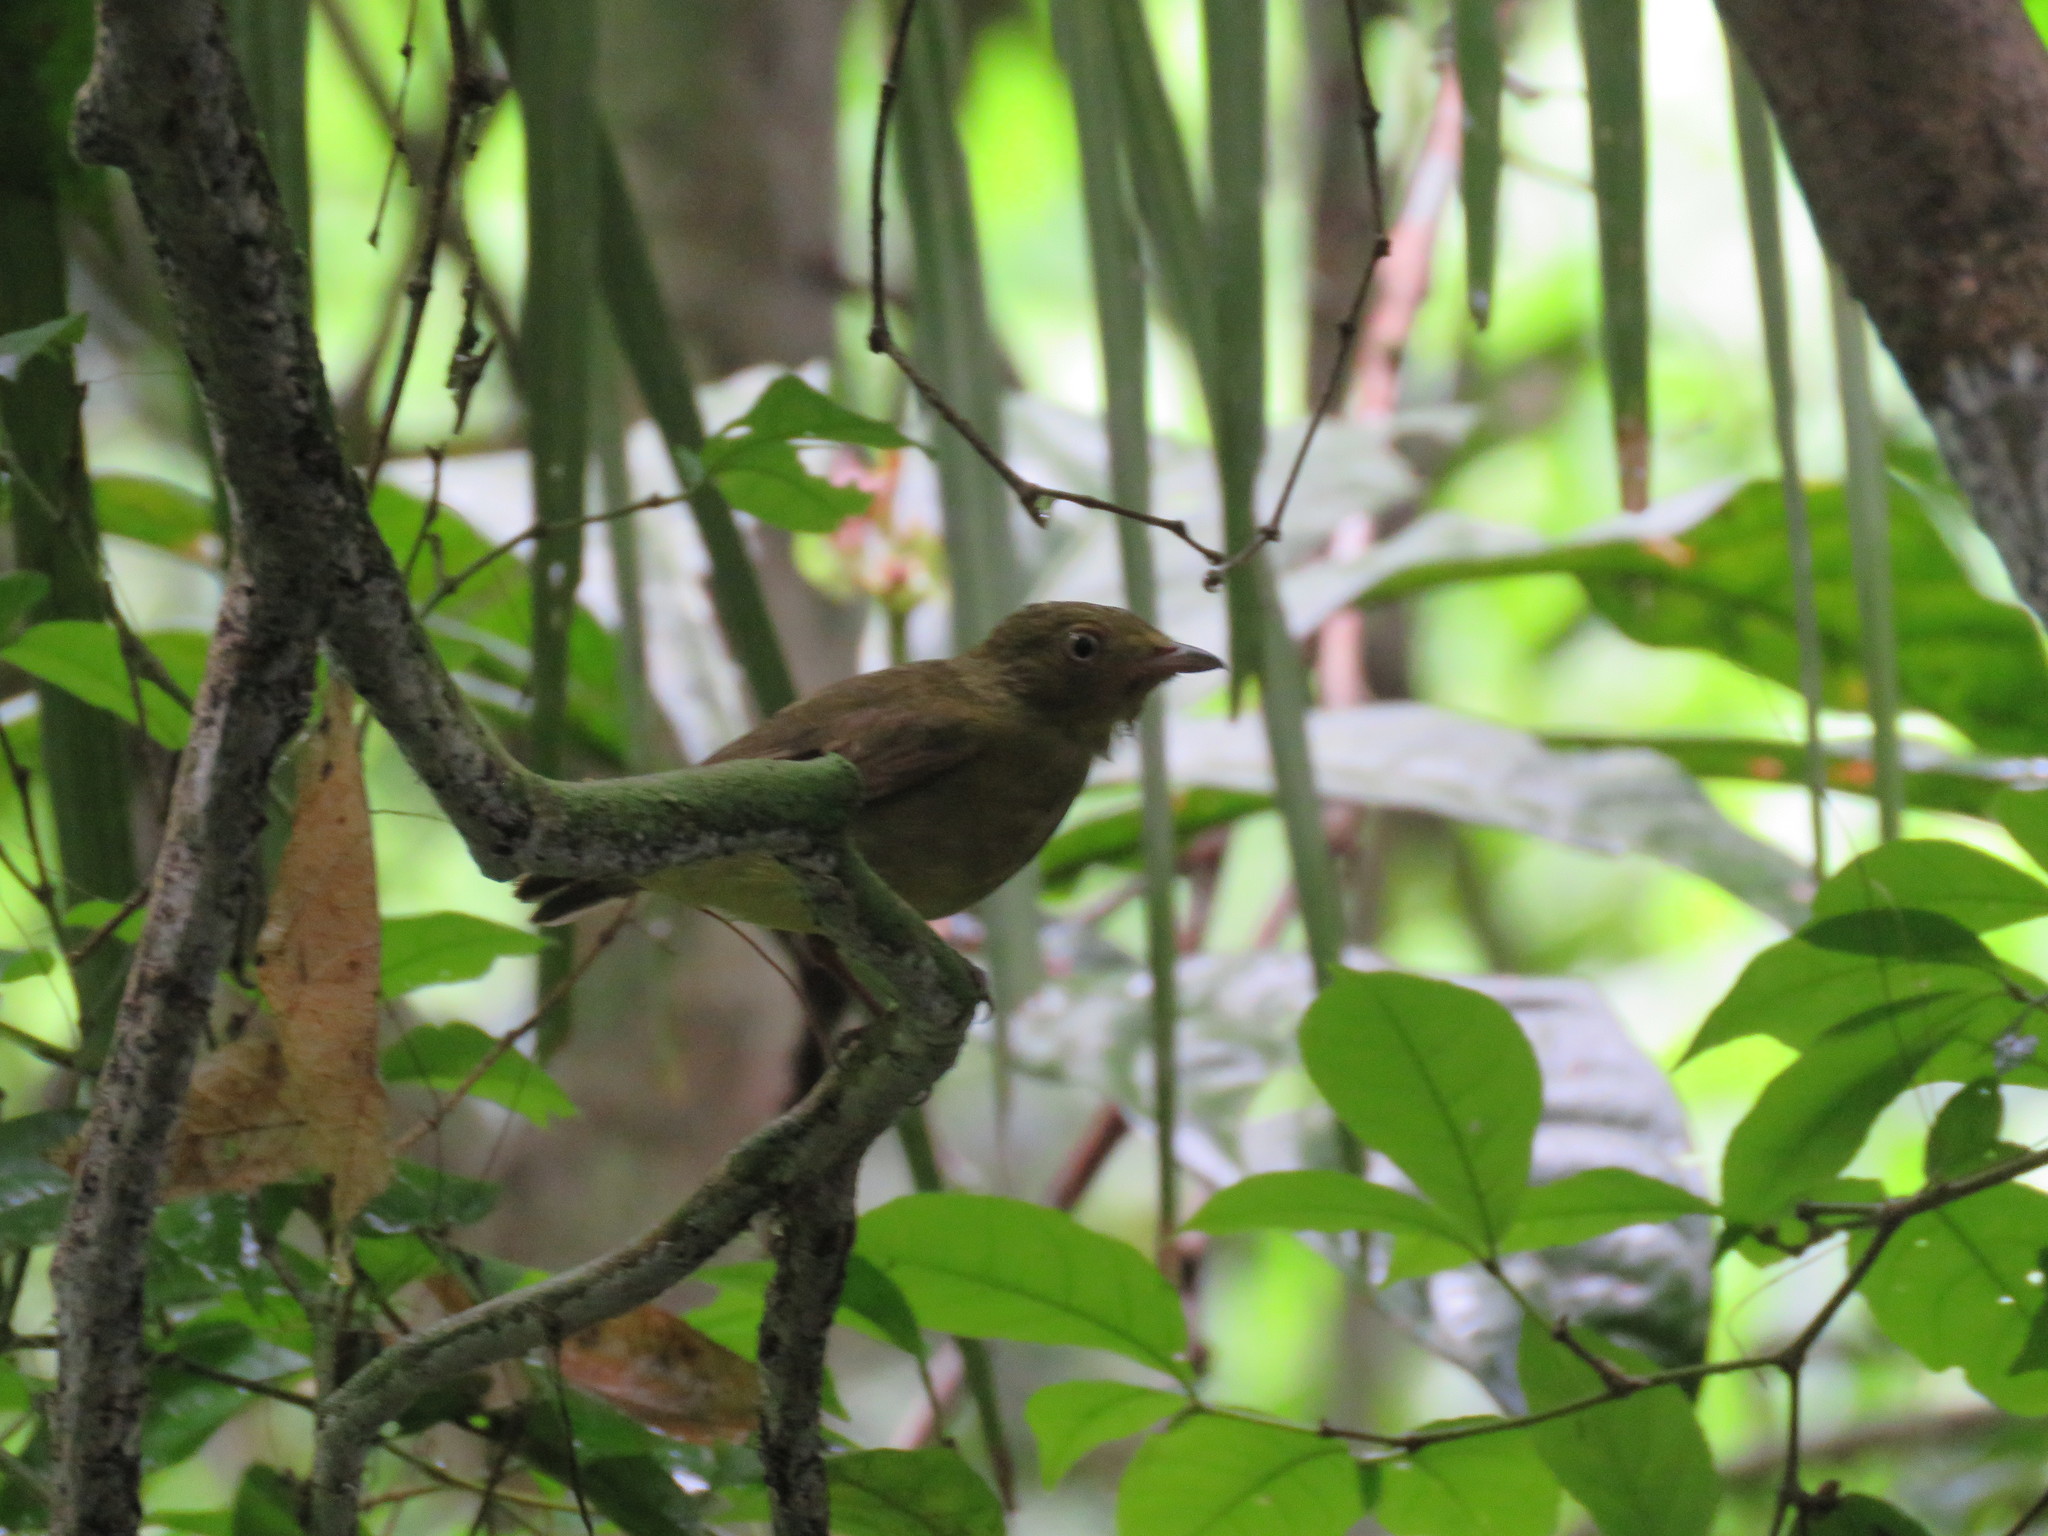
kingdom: Animalia
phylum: Chordata
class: Aves
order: Passeriformes
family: Pipridae
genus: Pipra
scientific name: Pipra fasciicauda
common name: Band-tailed manakin
